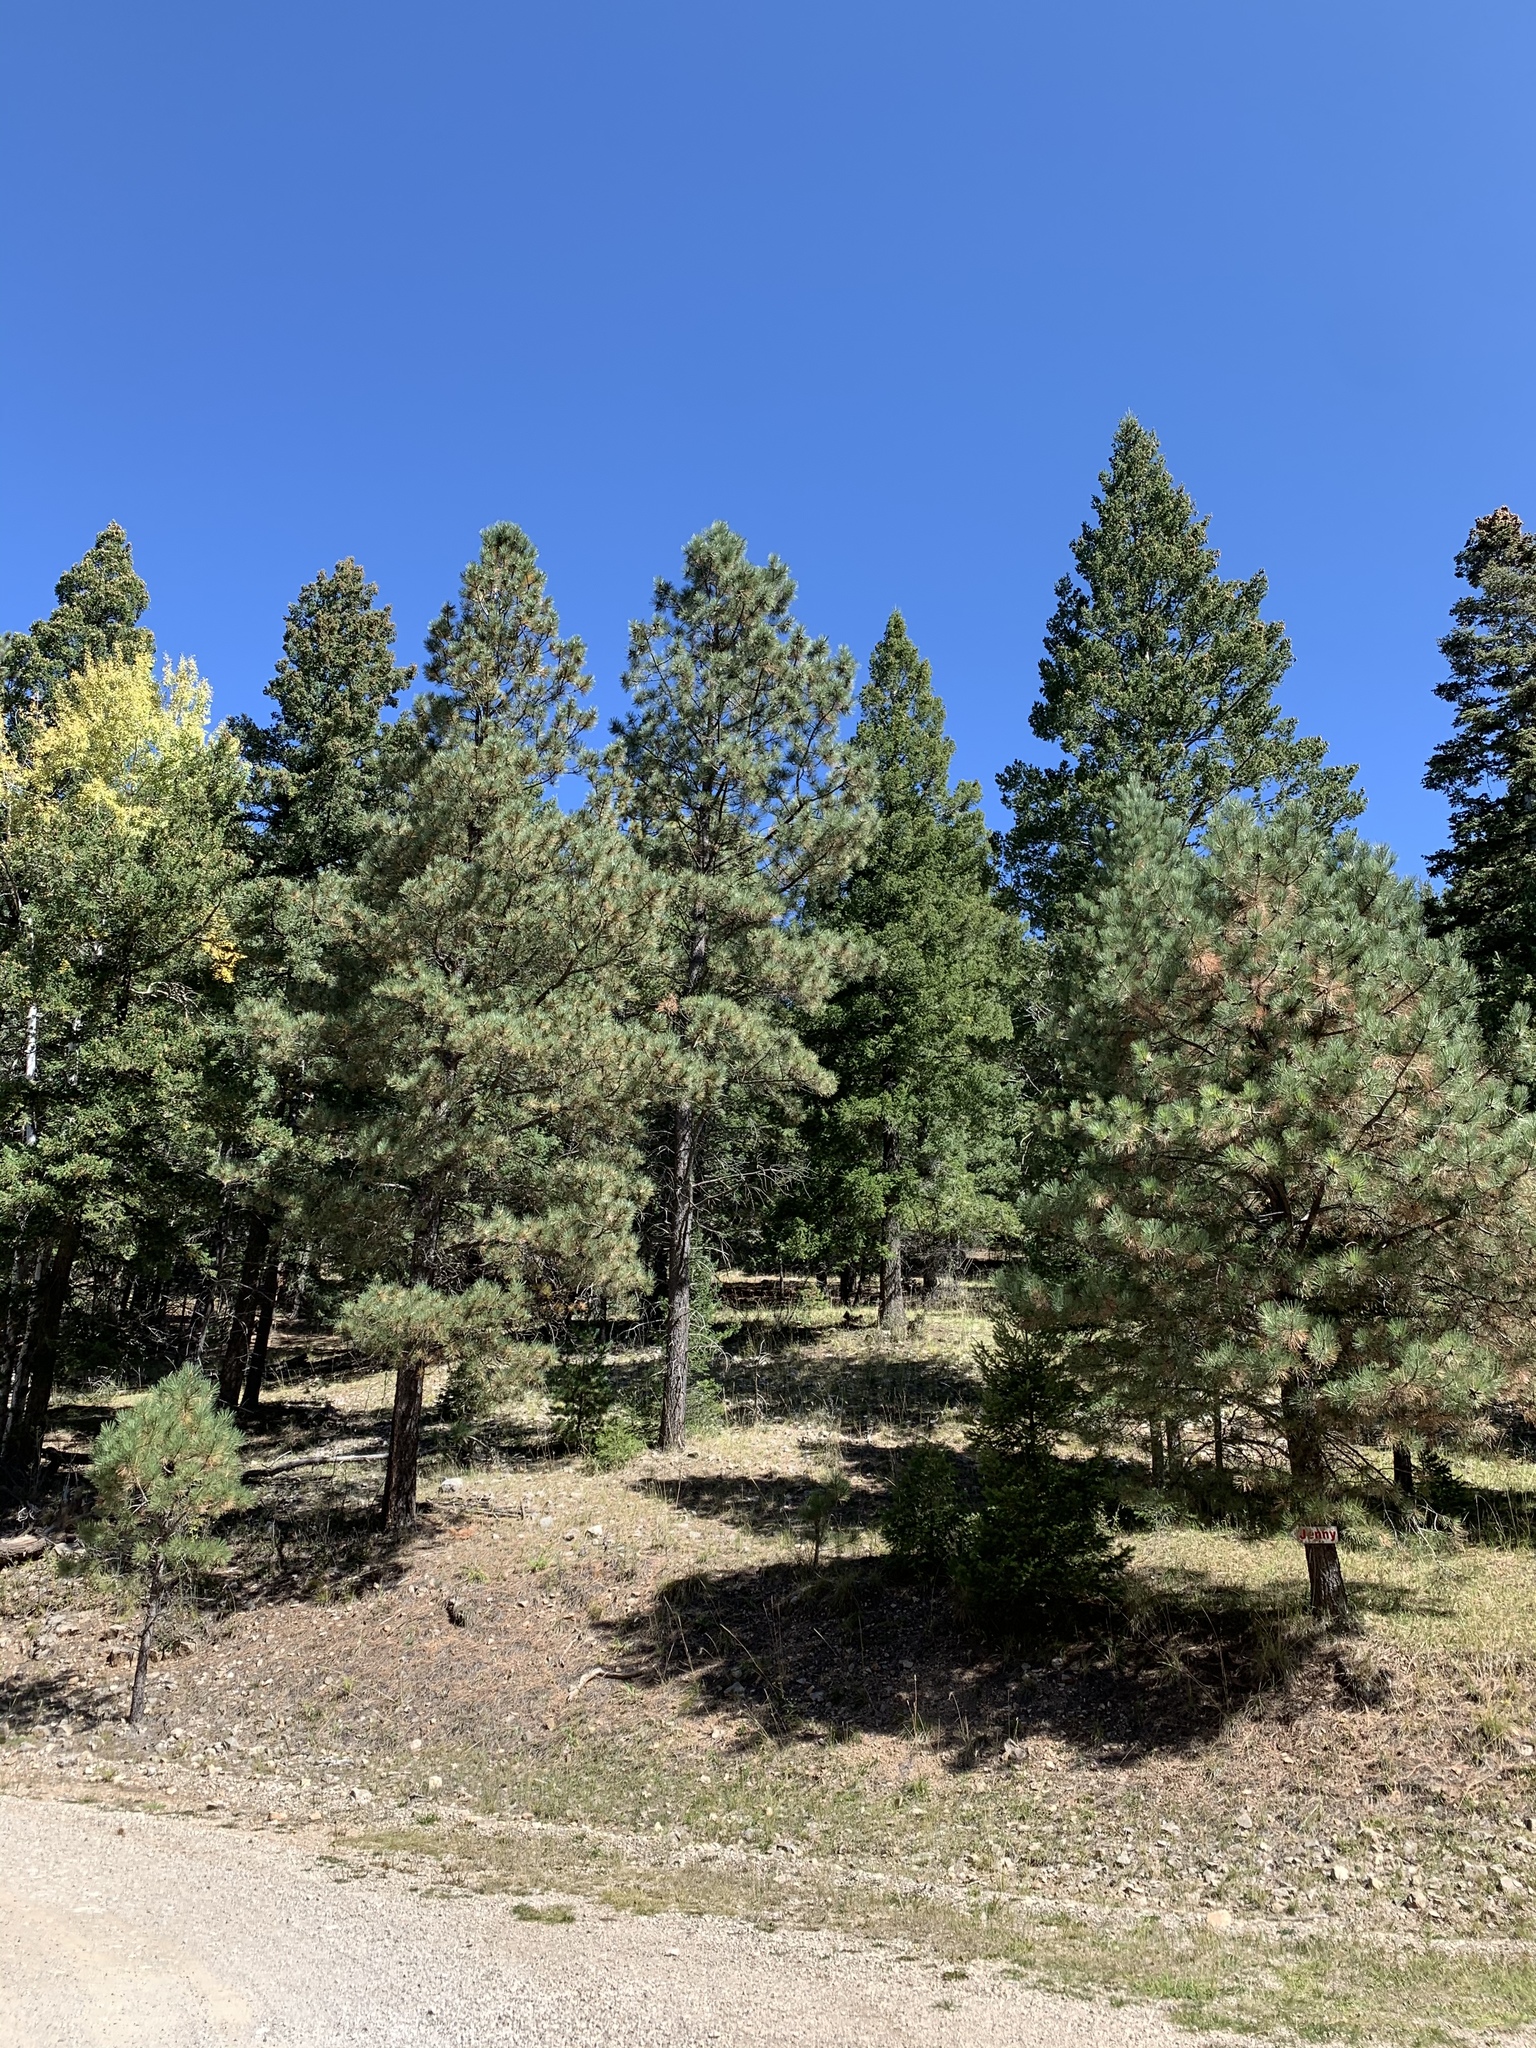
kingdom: Plantae
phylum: Tracheophyta
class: Pinopsida
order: Pinales
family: Pinaceae
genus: Pinus
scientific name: Pinus ponderosa
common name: Western yellow-pine
